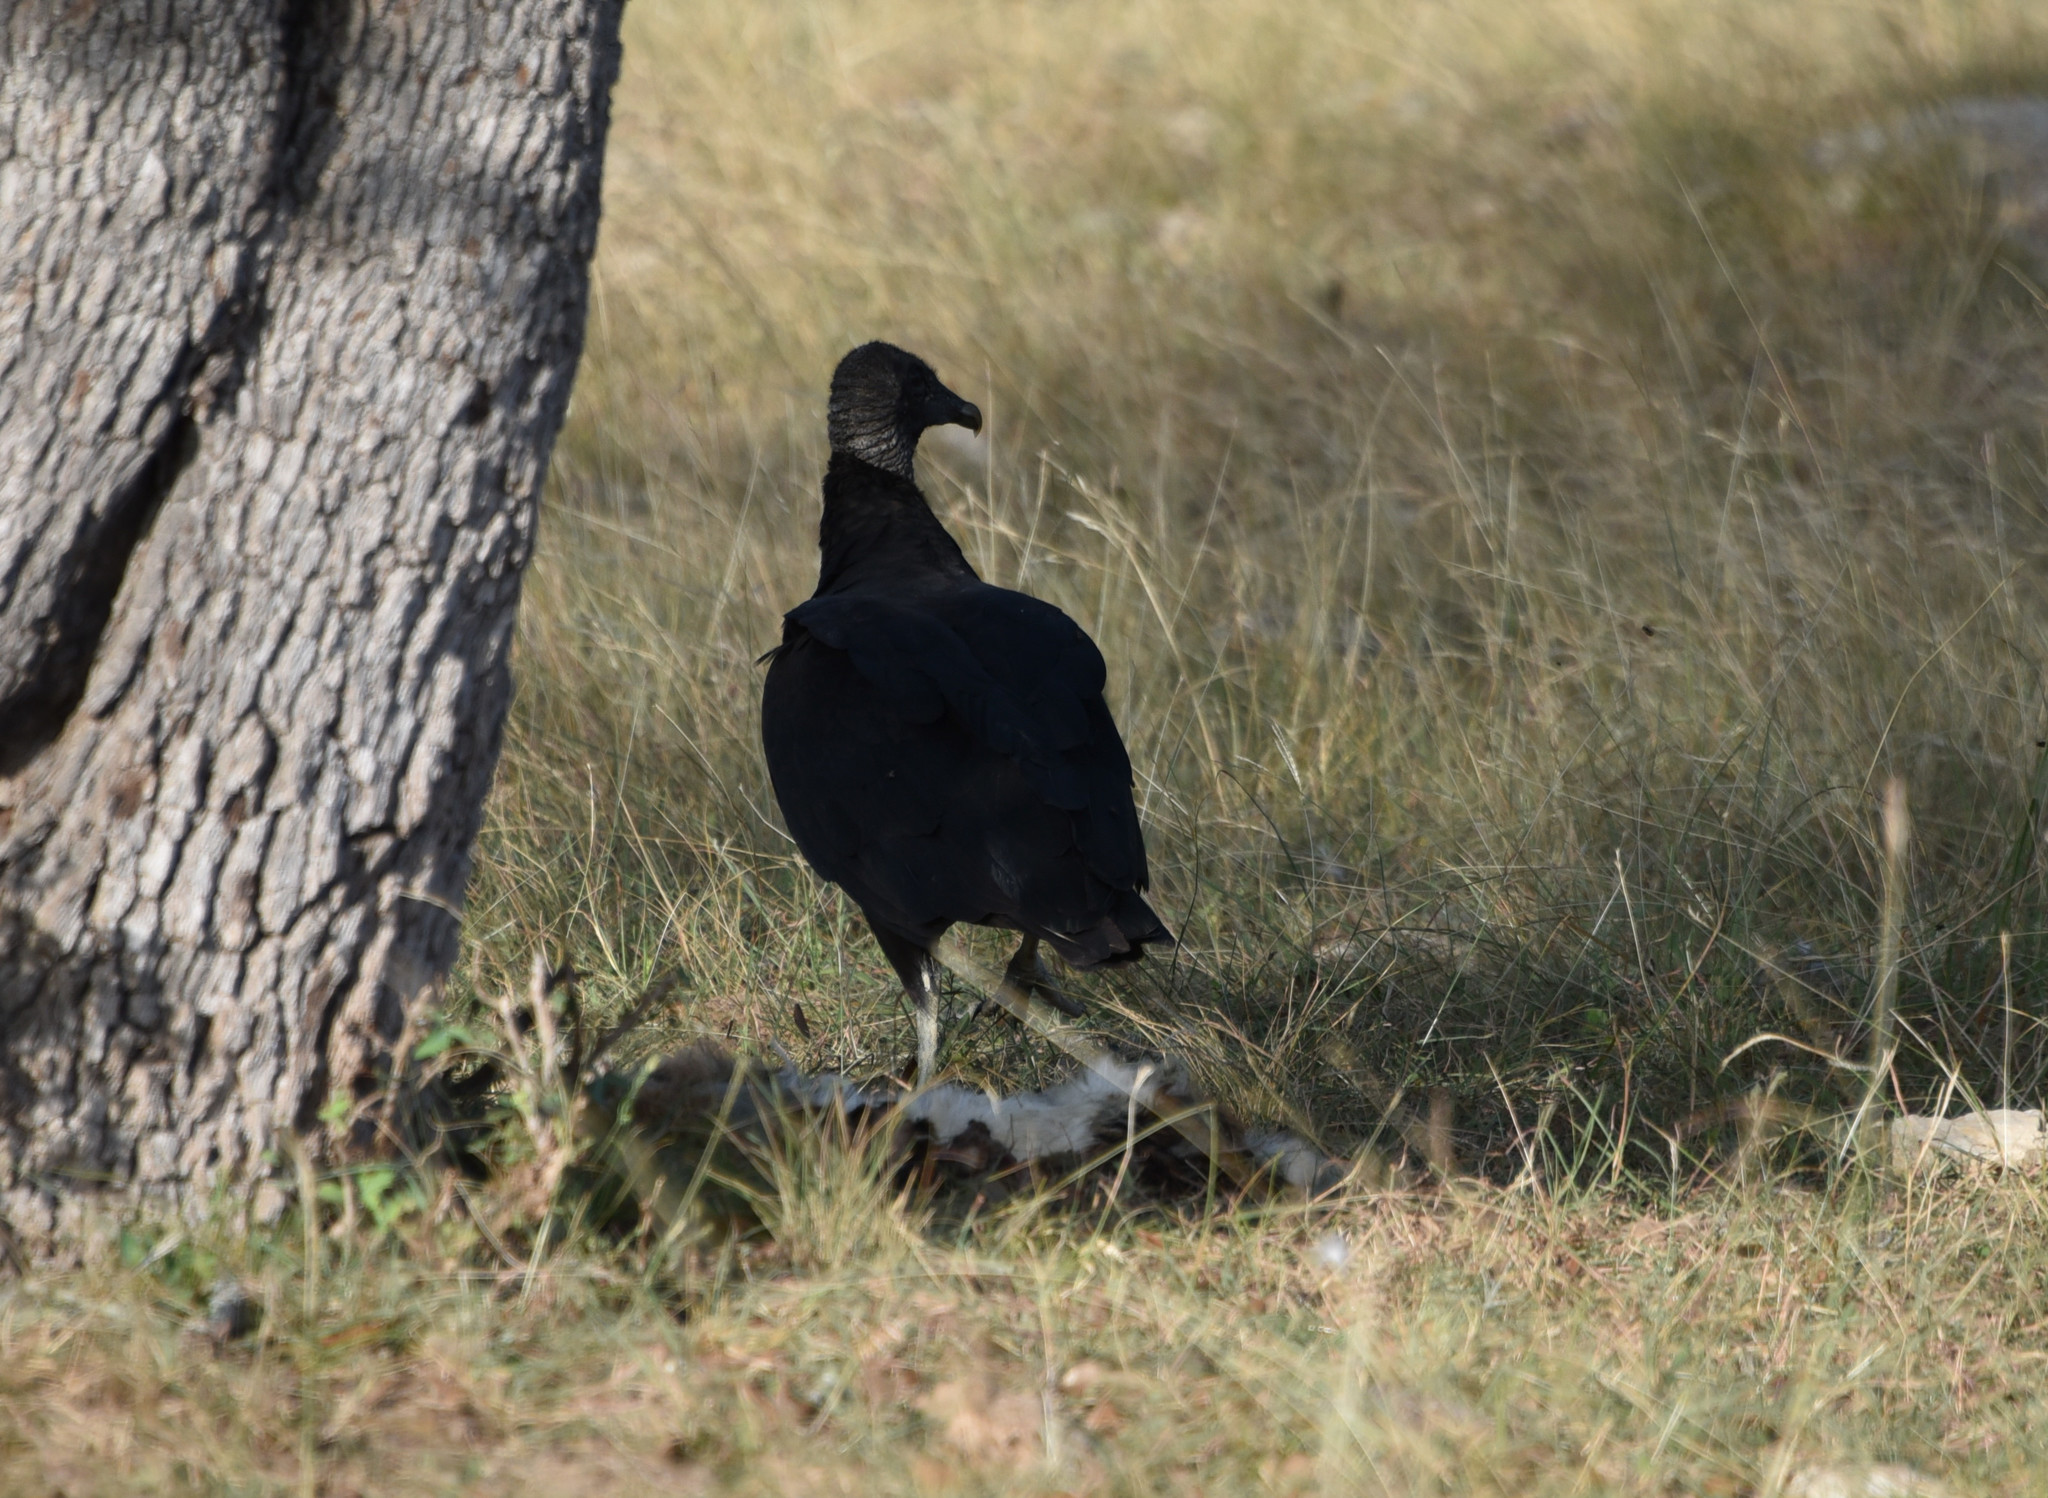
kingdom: Animalia
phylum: Chordata
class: Aves
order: Accipitriformes
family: Cathartidae
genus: Coragyps
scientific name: Coragyps atratus
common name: Black vulture
